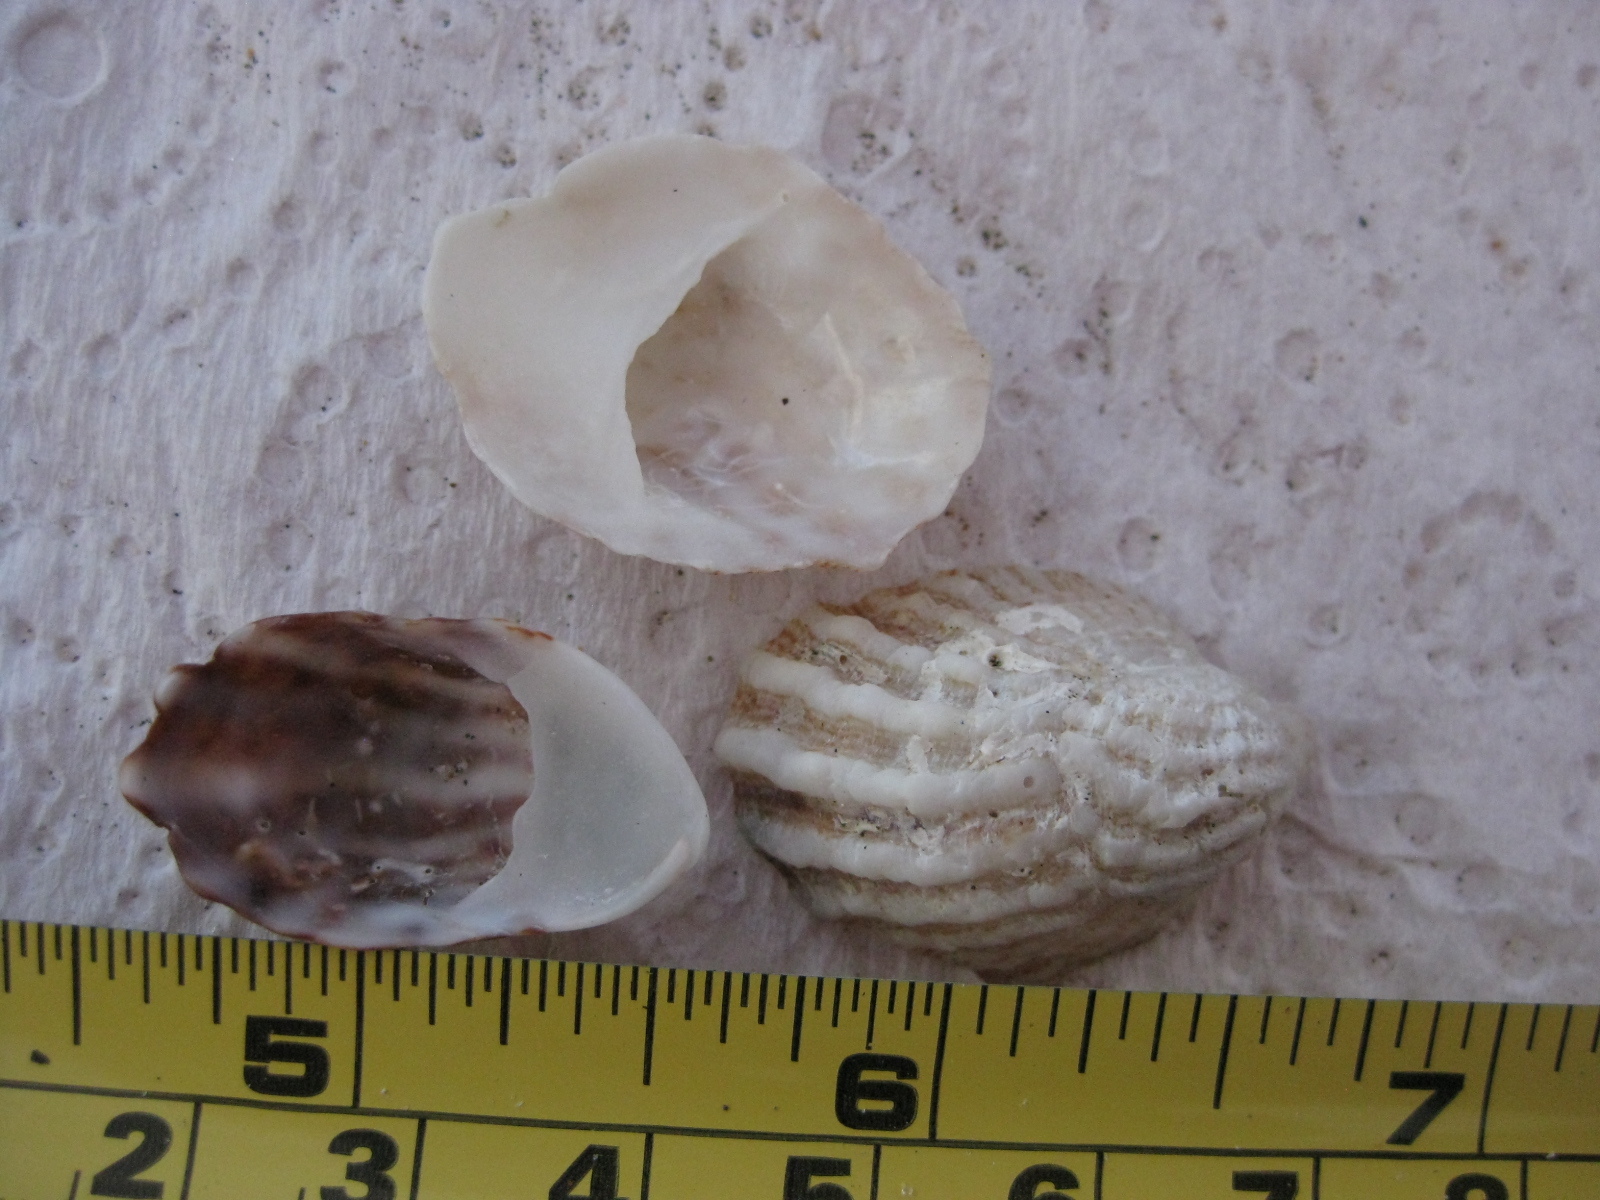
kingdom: Animalia
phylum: Mollusca
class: Gastropoda
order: Littorinimorpha
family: Calyptraeidae
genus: Maoricrypta
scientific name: Maoricrypta costata
